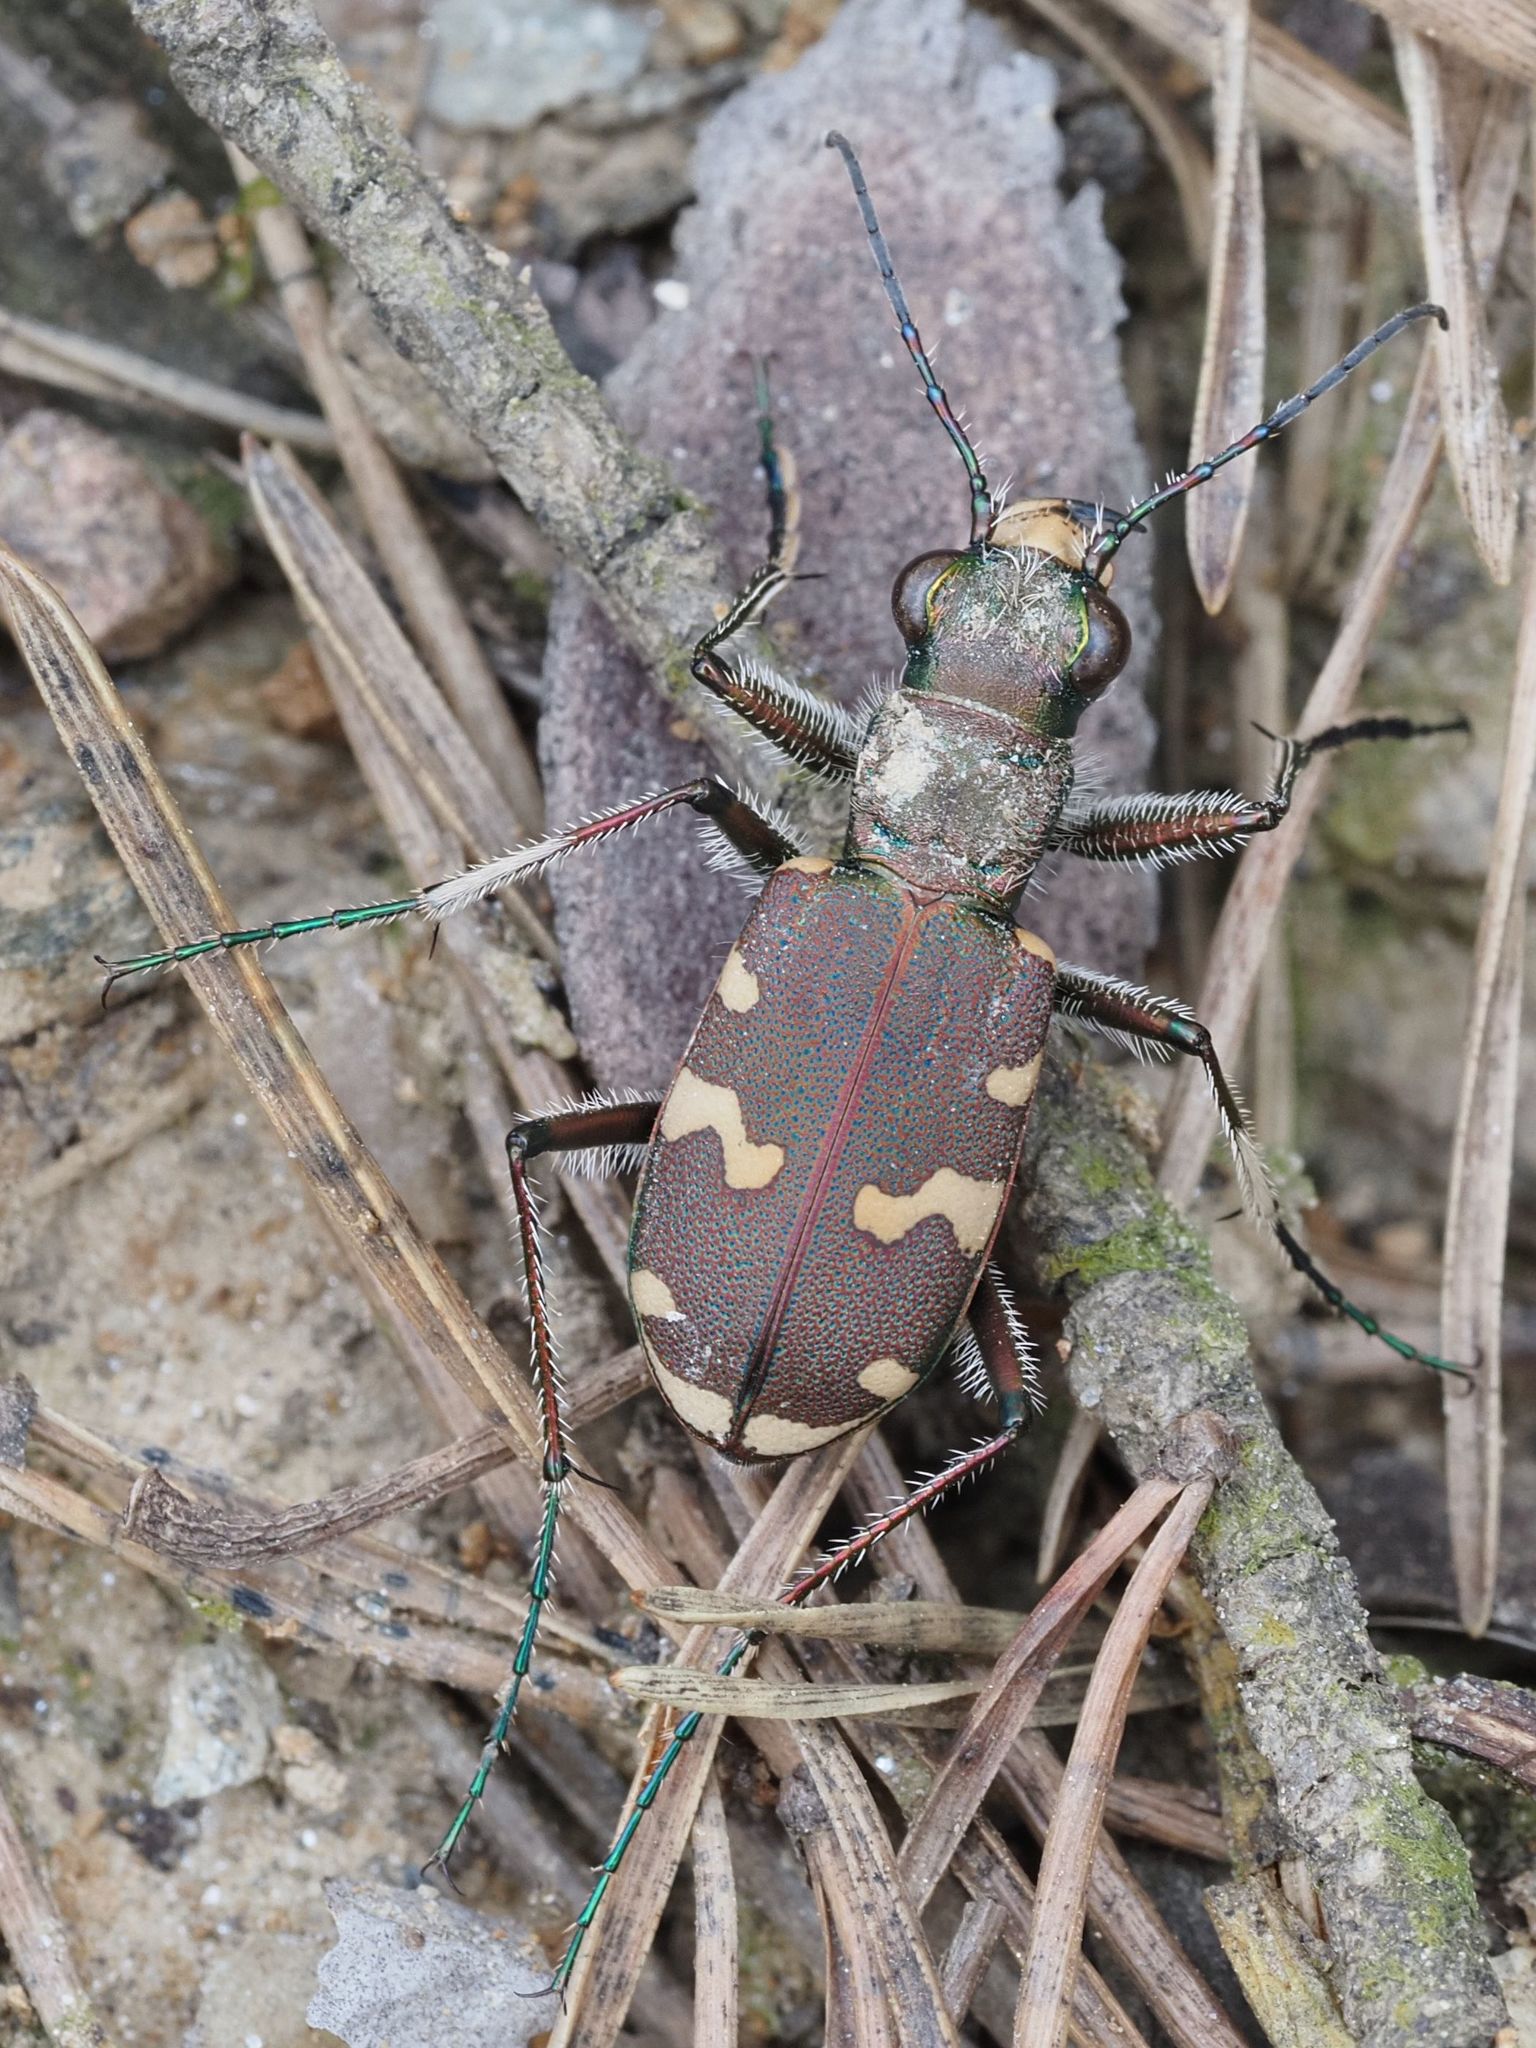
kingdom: Animalia
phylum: Arthropoda
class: Insecta
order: Coleoptera
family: Carabidae
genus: Cicindela
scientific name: Cicindela sylvicola
